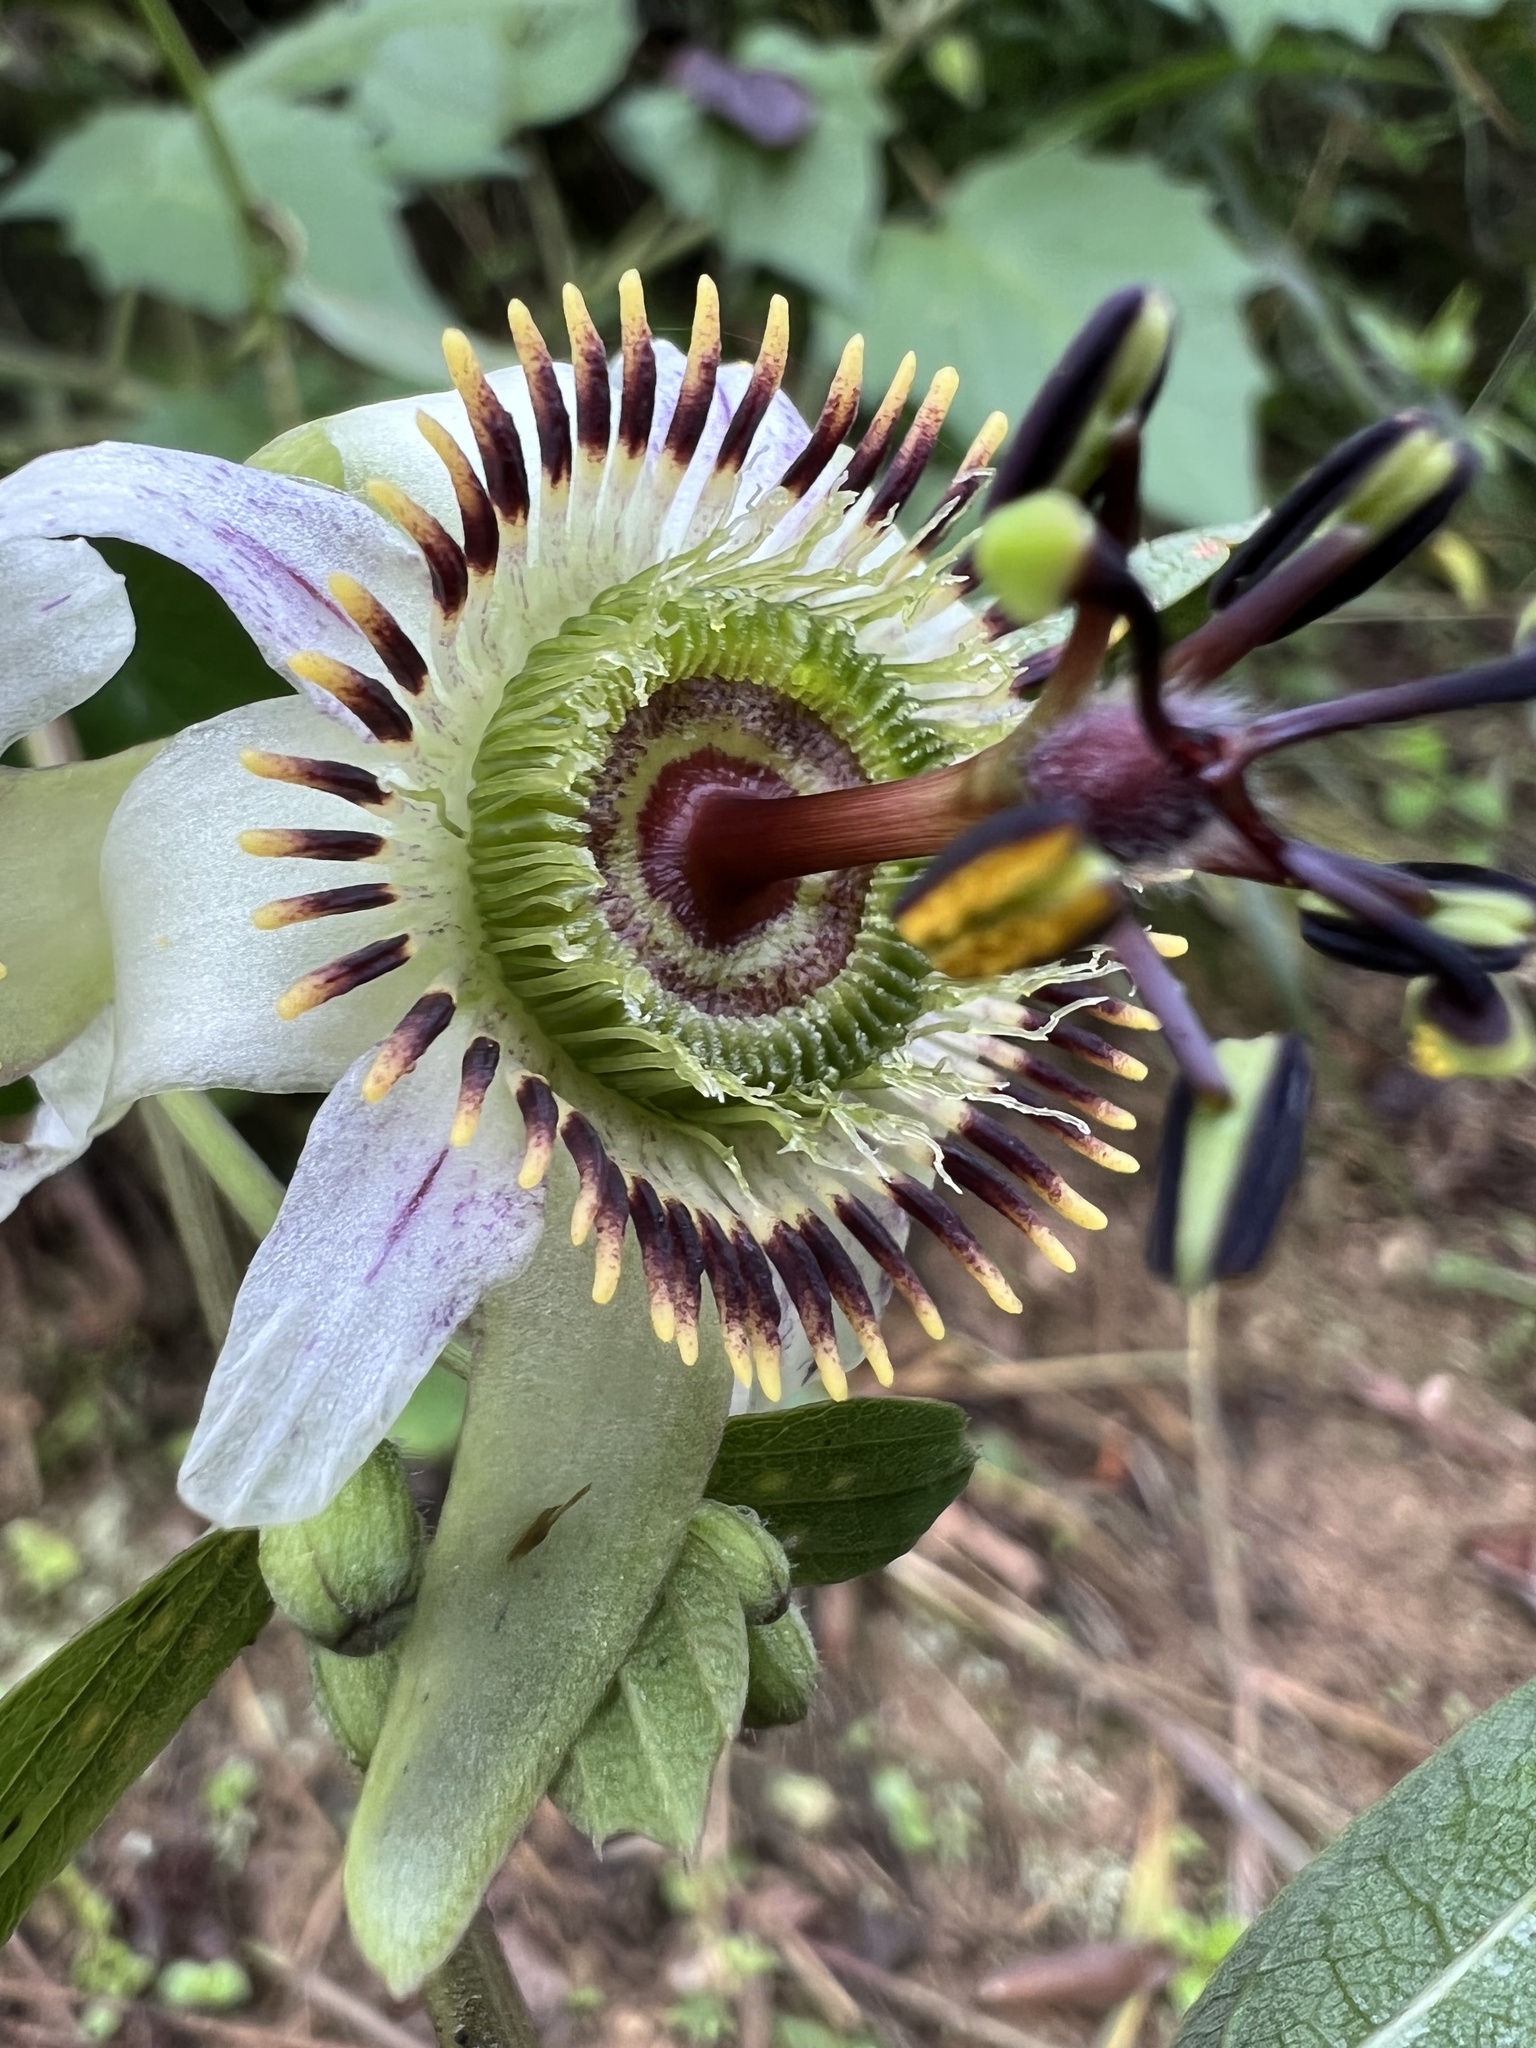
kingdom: Plantae
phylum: Tracheophyta
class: Magnoliopsida
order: Malpighiales
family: Passifloraceae
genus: Passiflora
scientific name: Passiflora cuspidifolia
